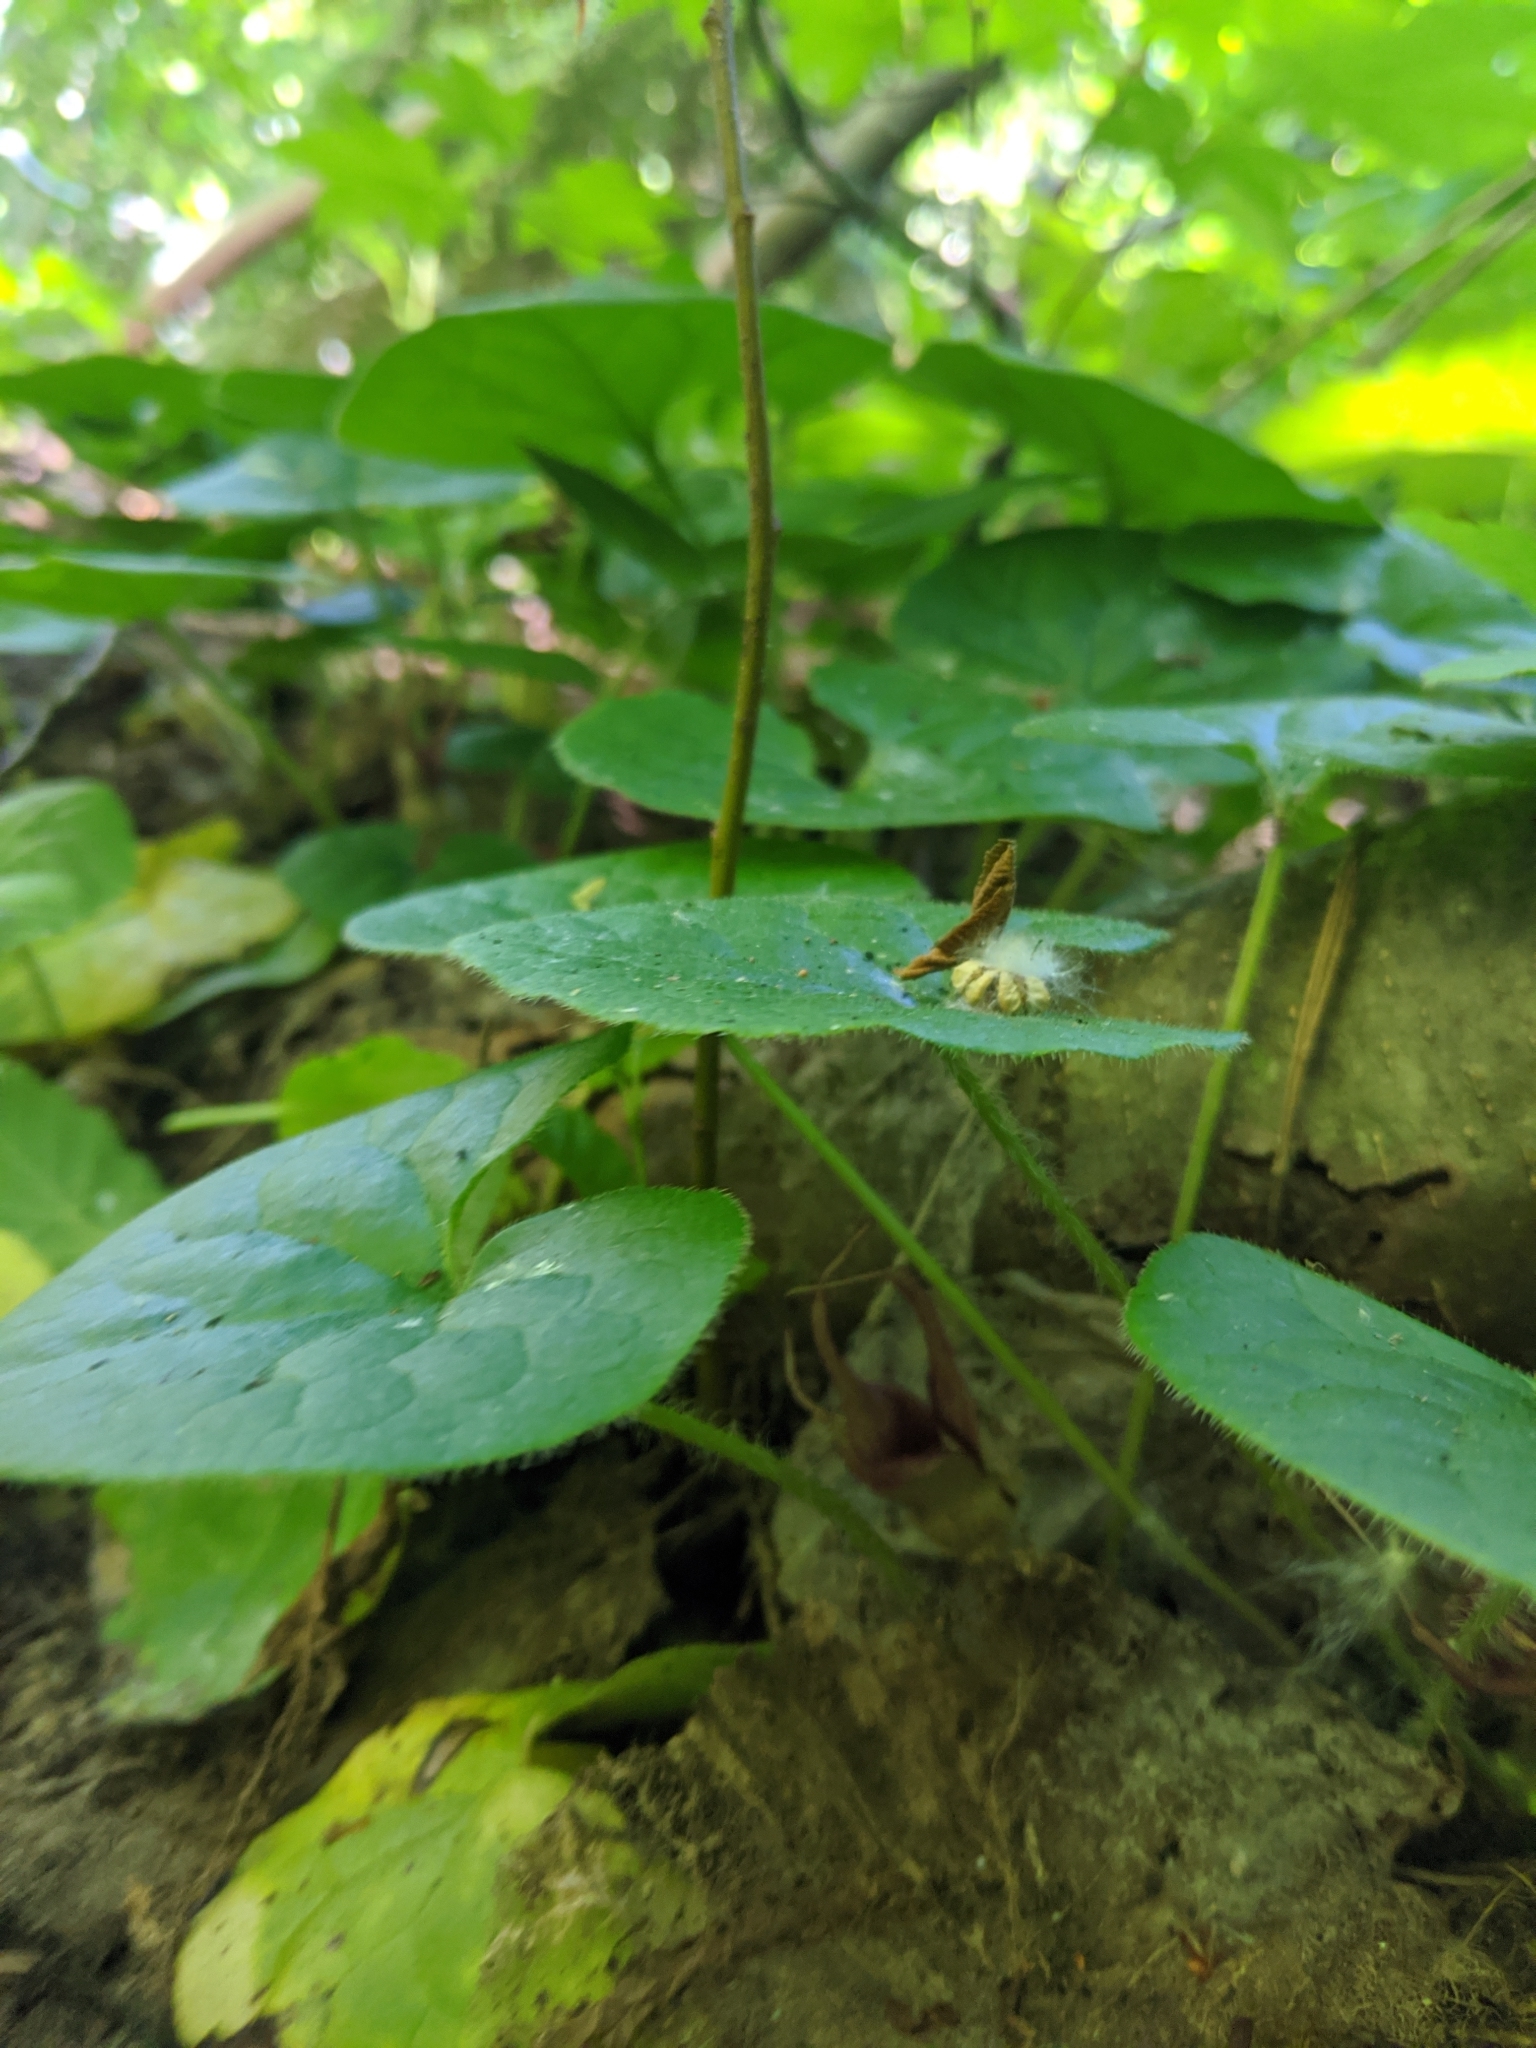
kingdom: Plantae
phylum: Tracheophyta
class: Magnoliopsida
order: Piperales
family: Aristolochiaceae
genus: Asarum
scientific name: Asarum caudatum
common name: Wild ginger
